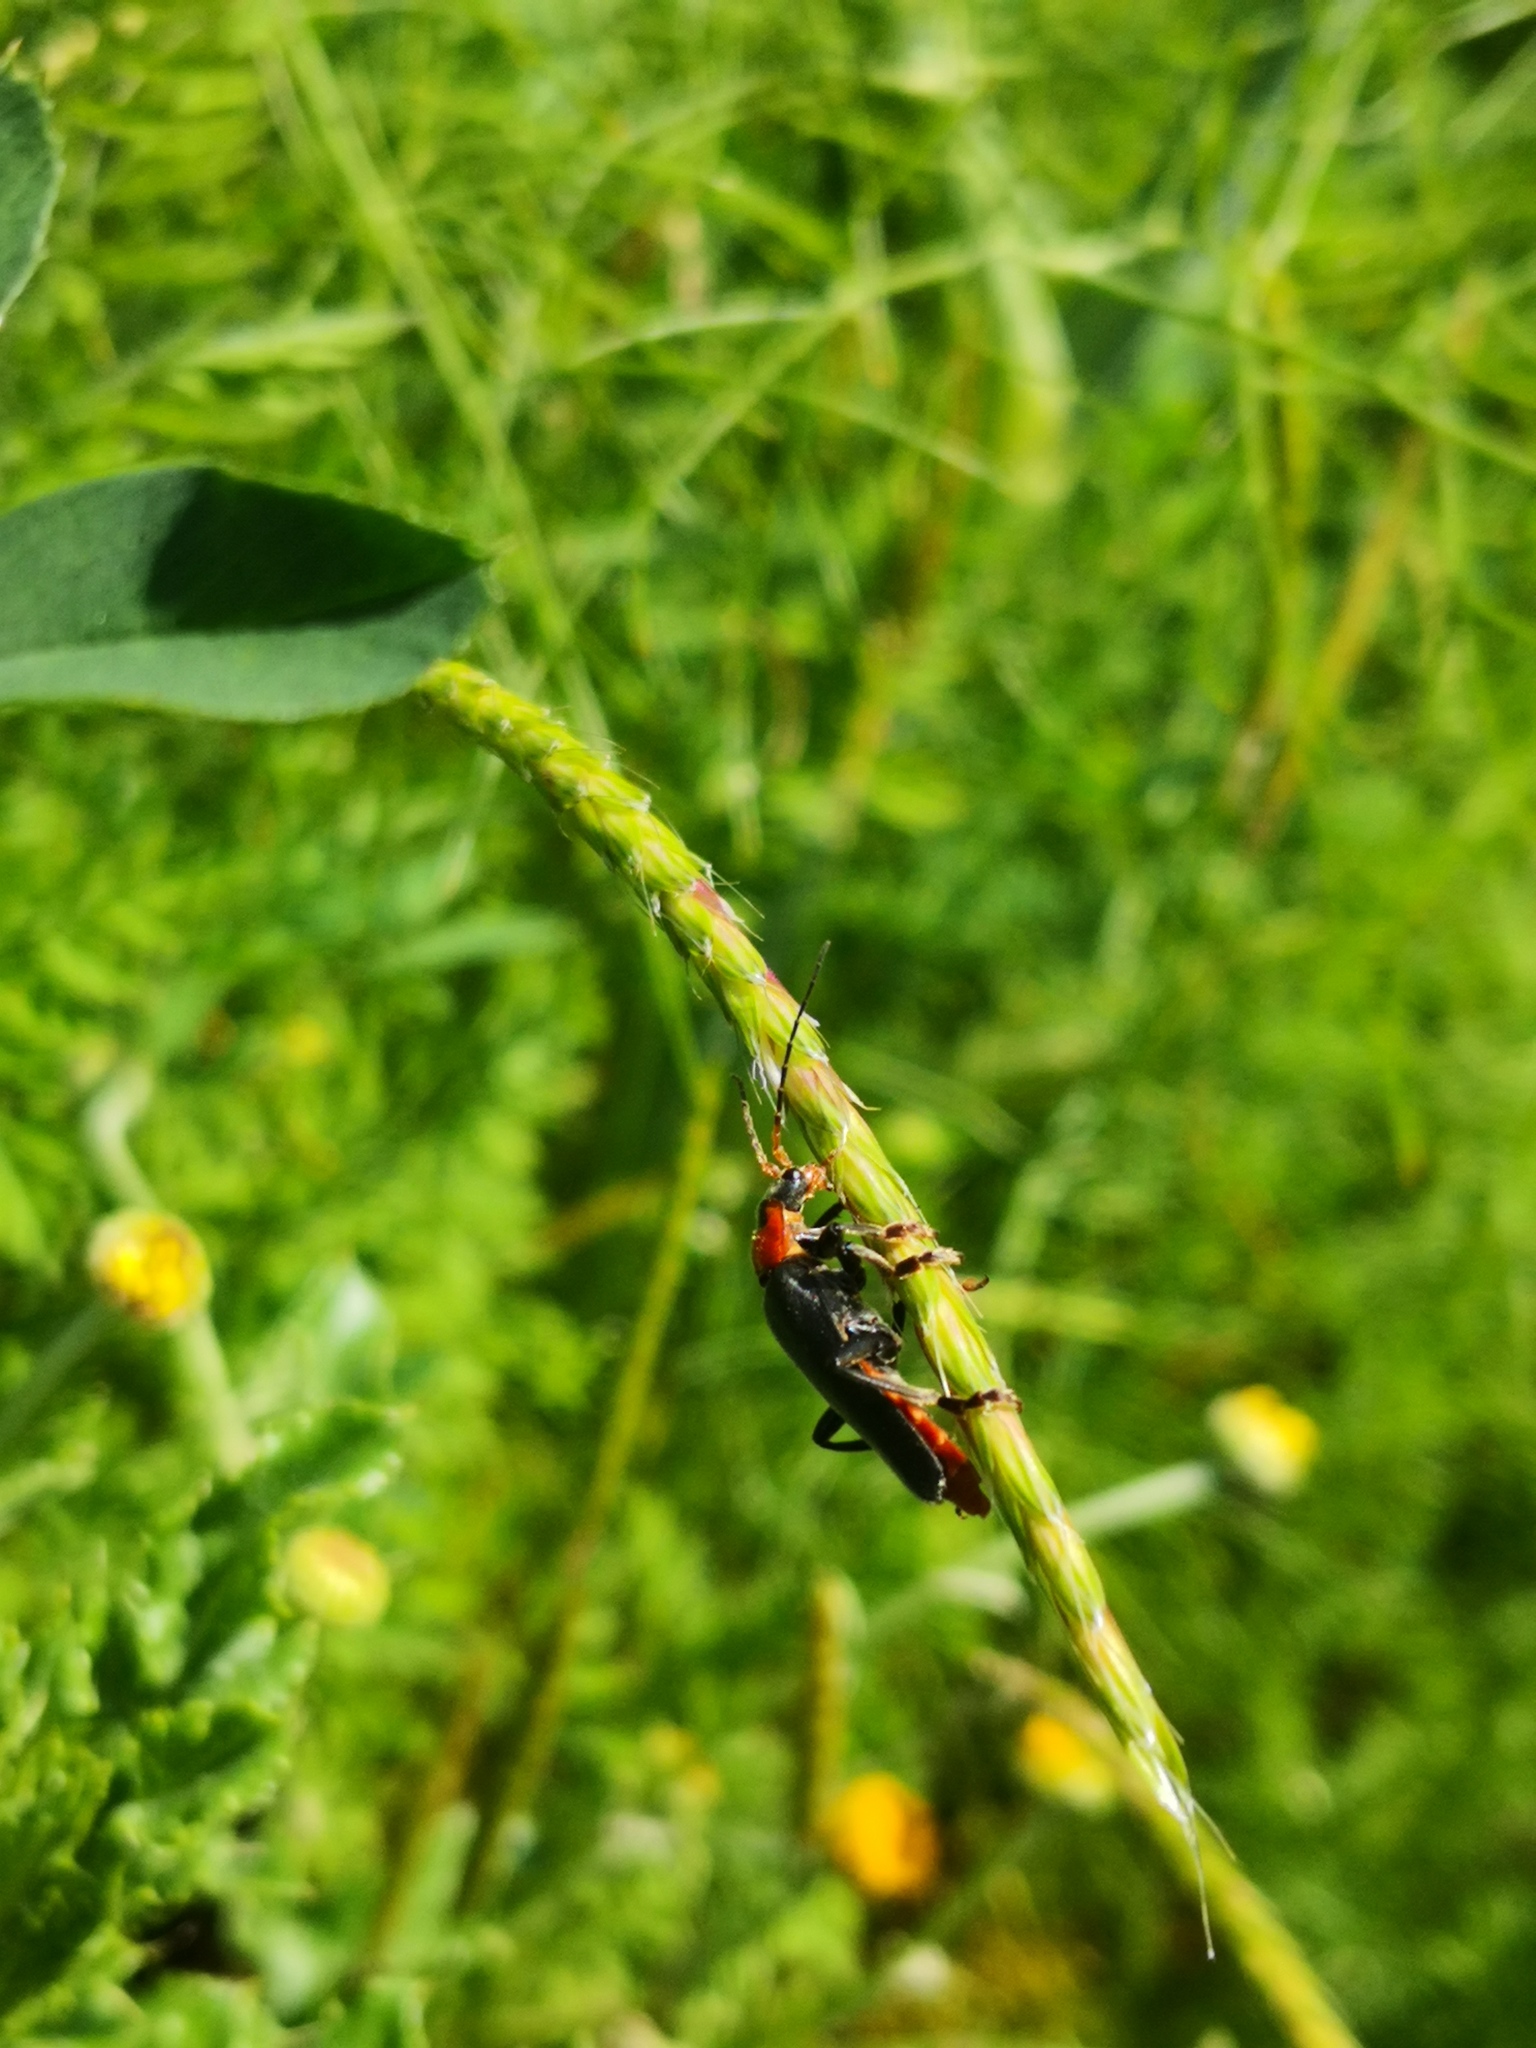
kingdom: Animalia
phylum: Arthropoda
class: Insecta
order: Coleoptera
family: Cantharidae
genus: Cantharis
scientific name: Cantharis fusca
